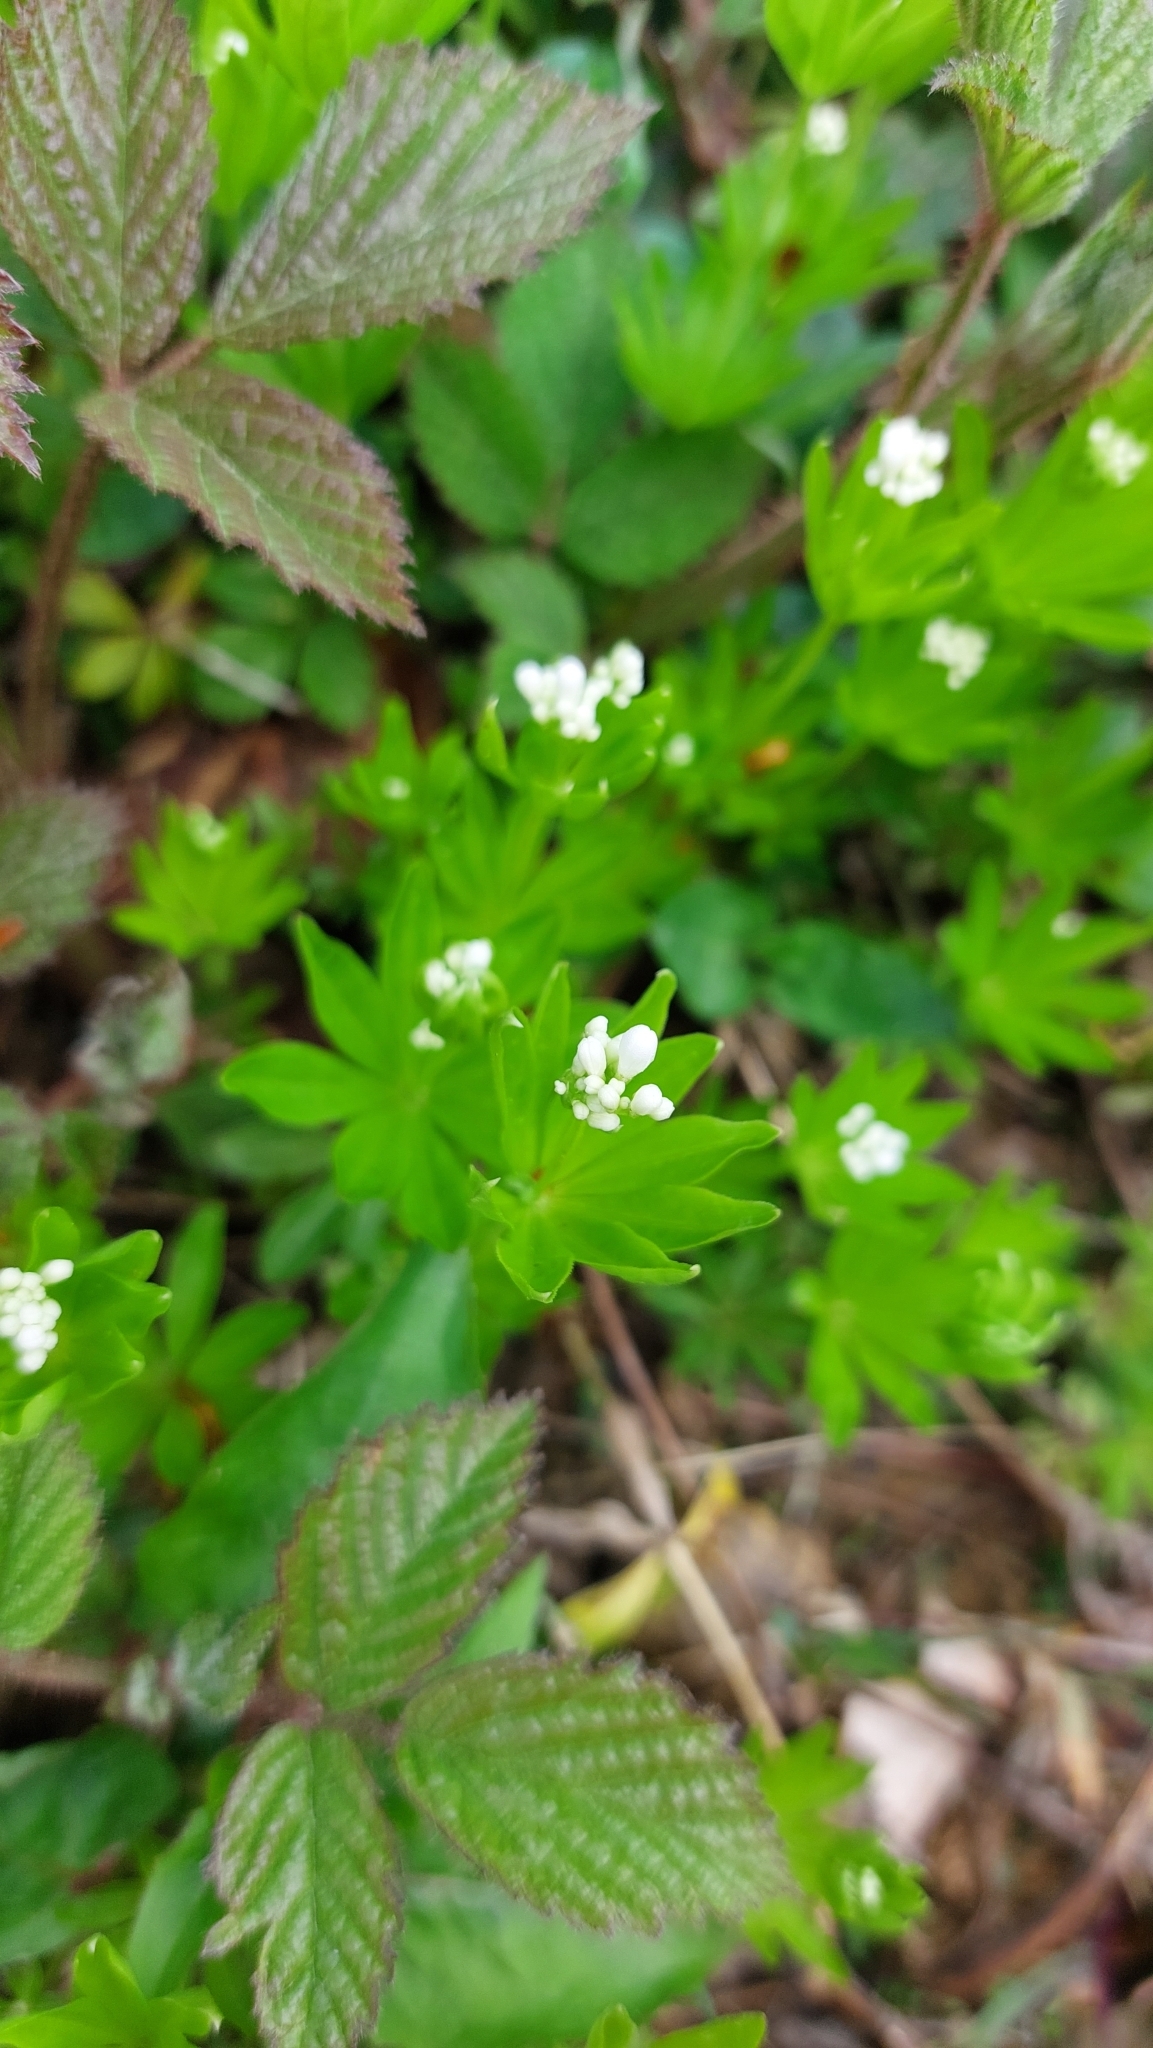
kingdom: Plantae
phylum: Tracheophyta
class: Magnoliopsida
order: Gentianales
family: Rubiaceae
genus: Galium
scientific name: Galium odoratum
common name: Sweet woodruff
